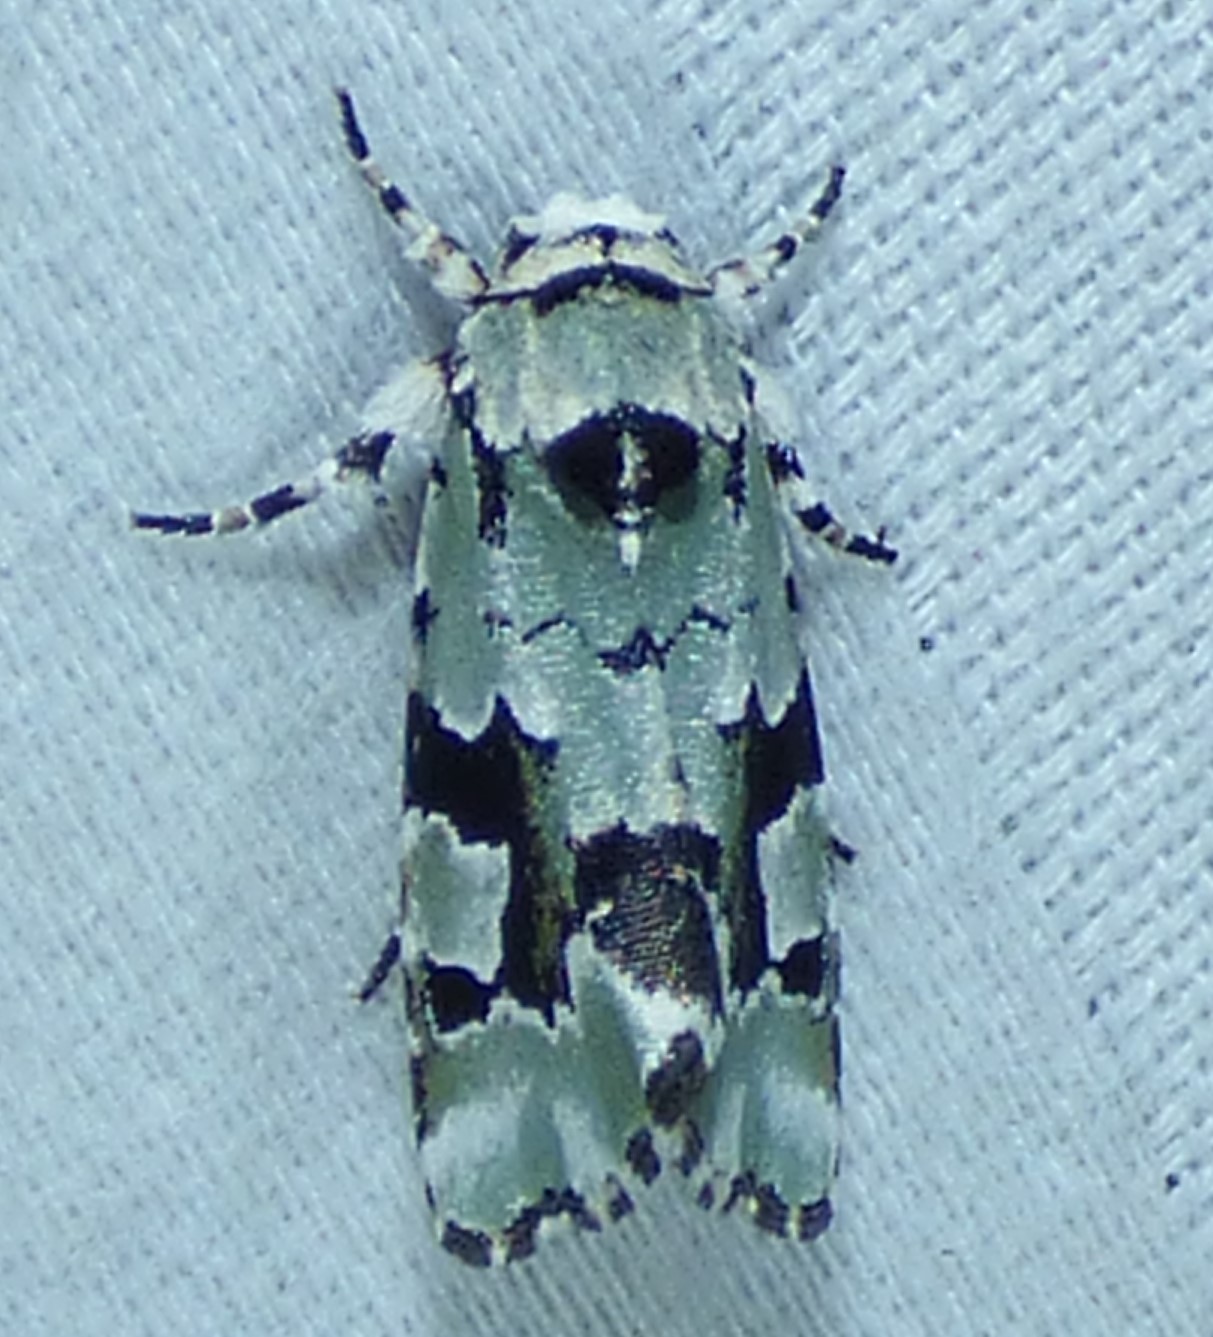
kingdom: Animalia
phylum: Arthropoda
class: Insecta
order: Lepidoptera
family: Noctuidae
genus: Emarginea
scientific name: Emarginea percara
